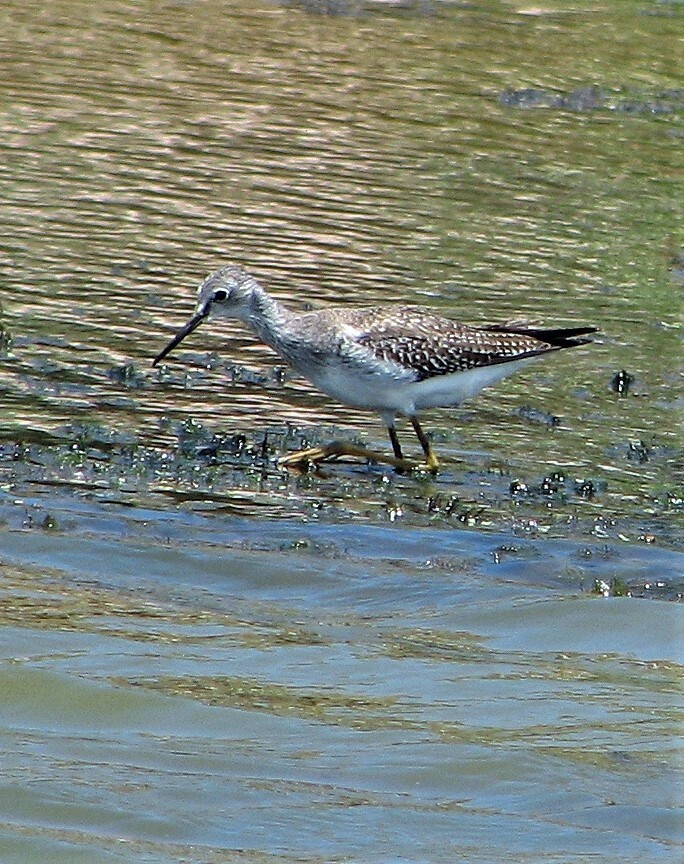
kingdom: Animalia
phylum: Chordata
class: Aves
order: Charadriiformes
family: Scolopacidae
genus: Tringa
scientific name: Tringa flavipes
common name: Lesser yellowlegs
